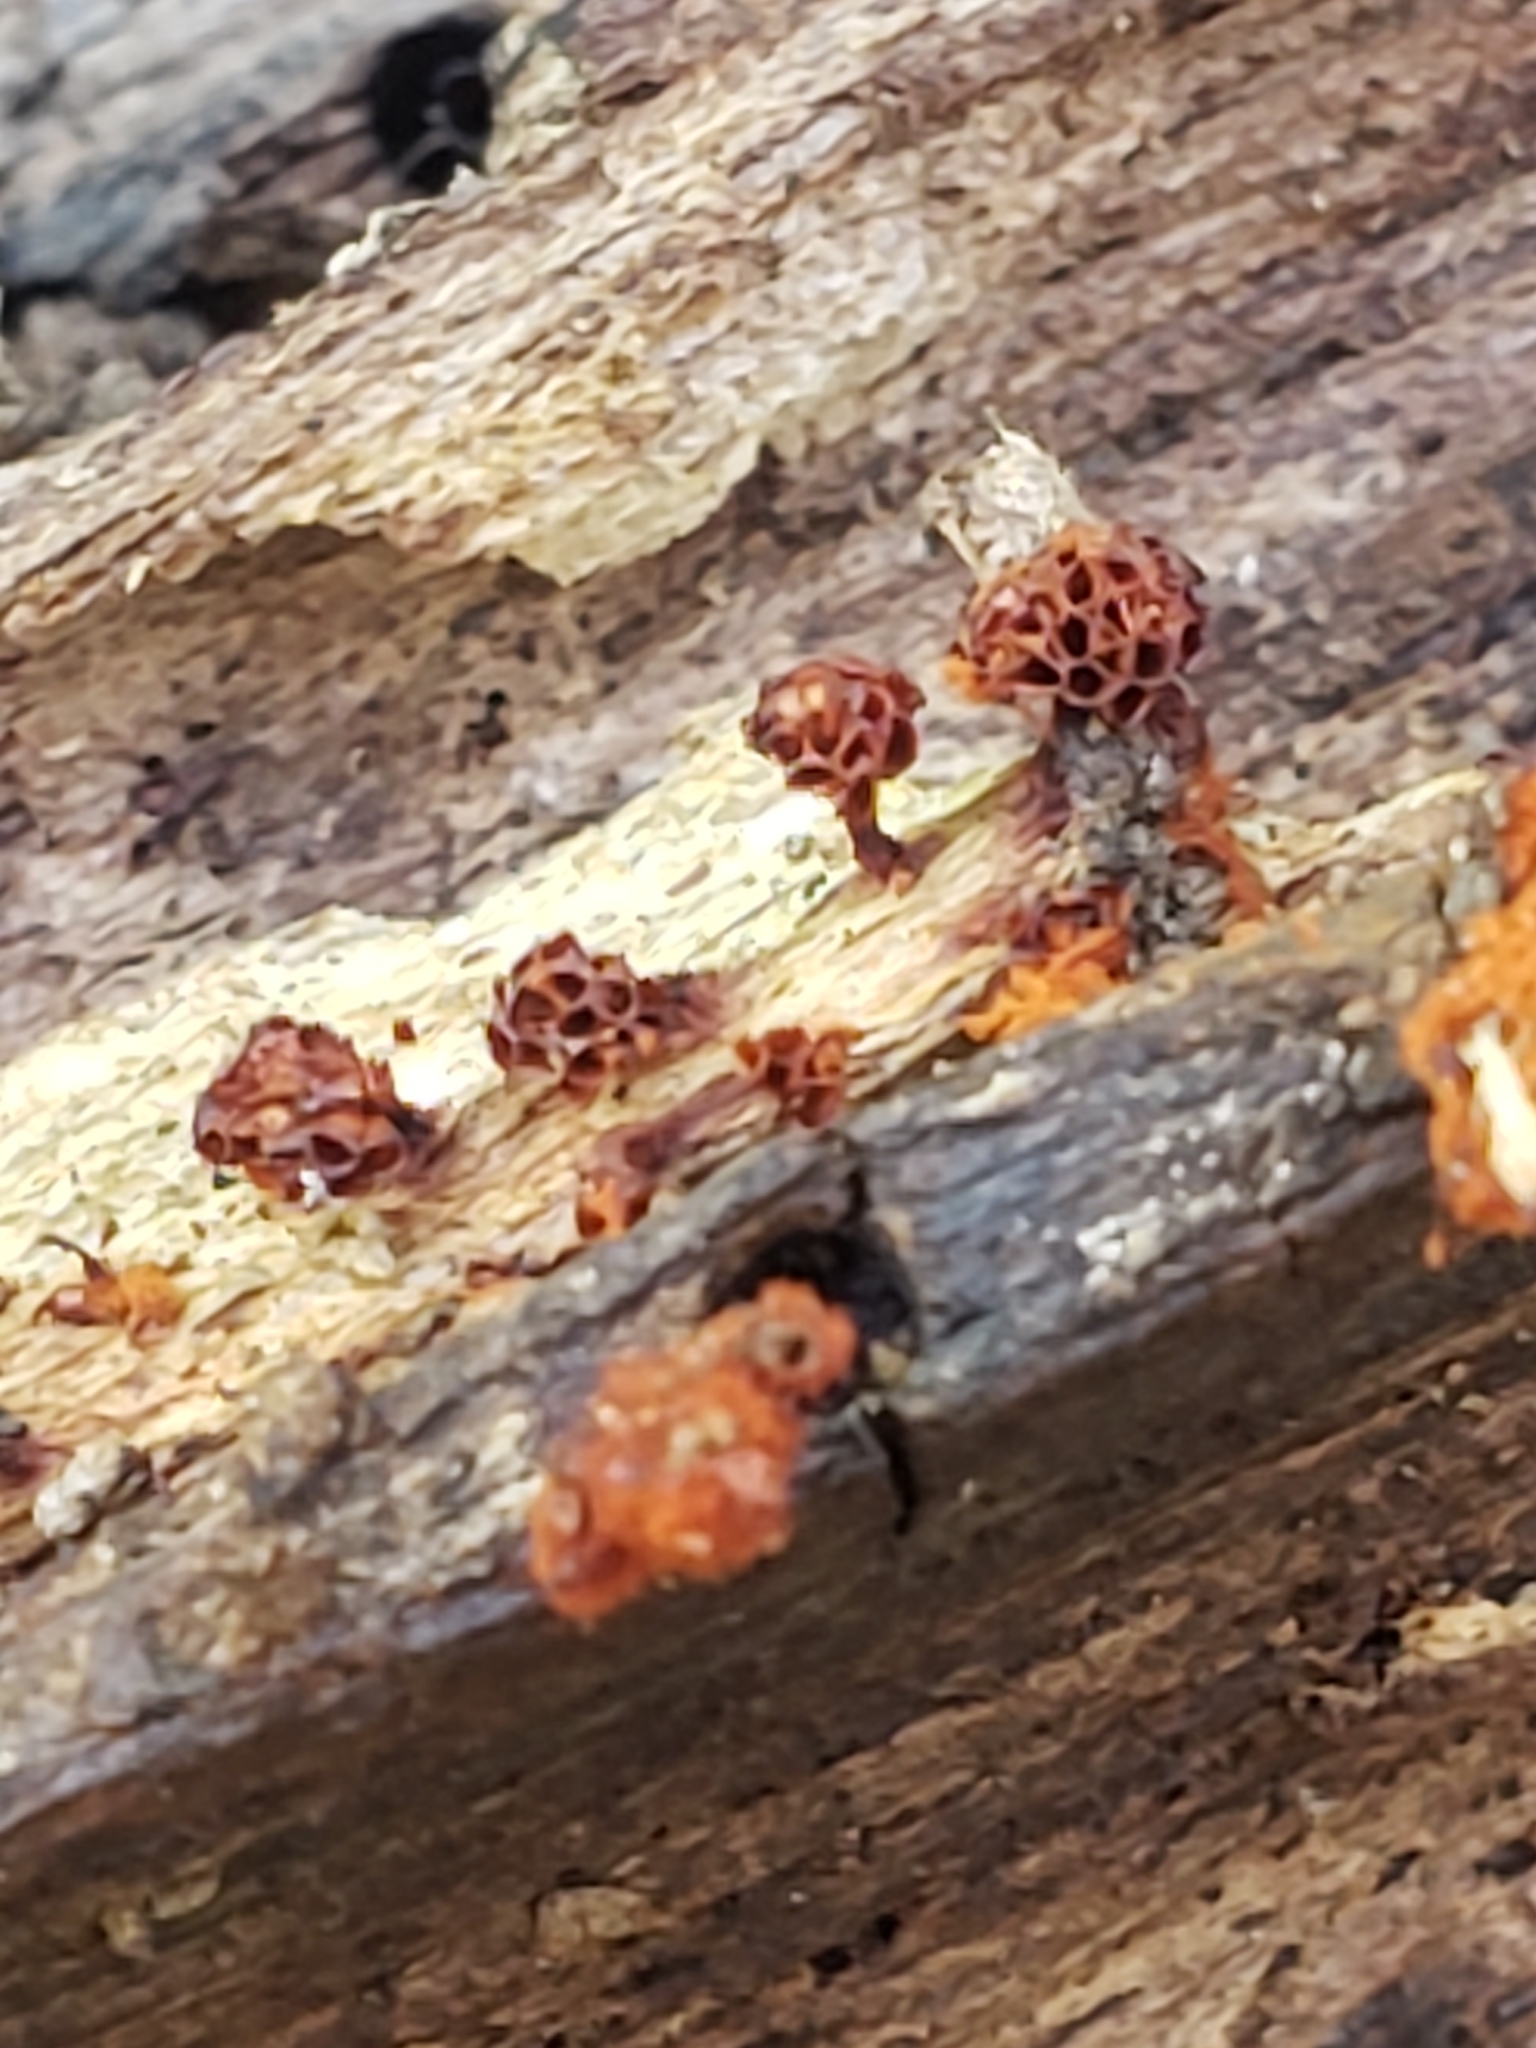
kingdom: Protozoa
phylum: Mycetozoa
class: Myxomycetes
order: Trichiales
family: Trichiaceae
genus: Metatrichia
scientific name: Metatrichia vesparia
